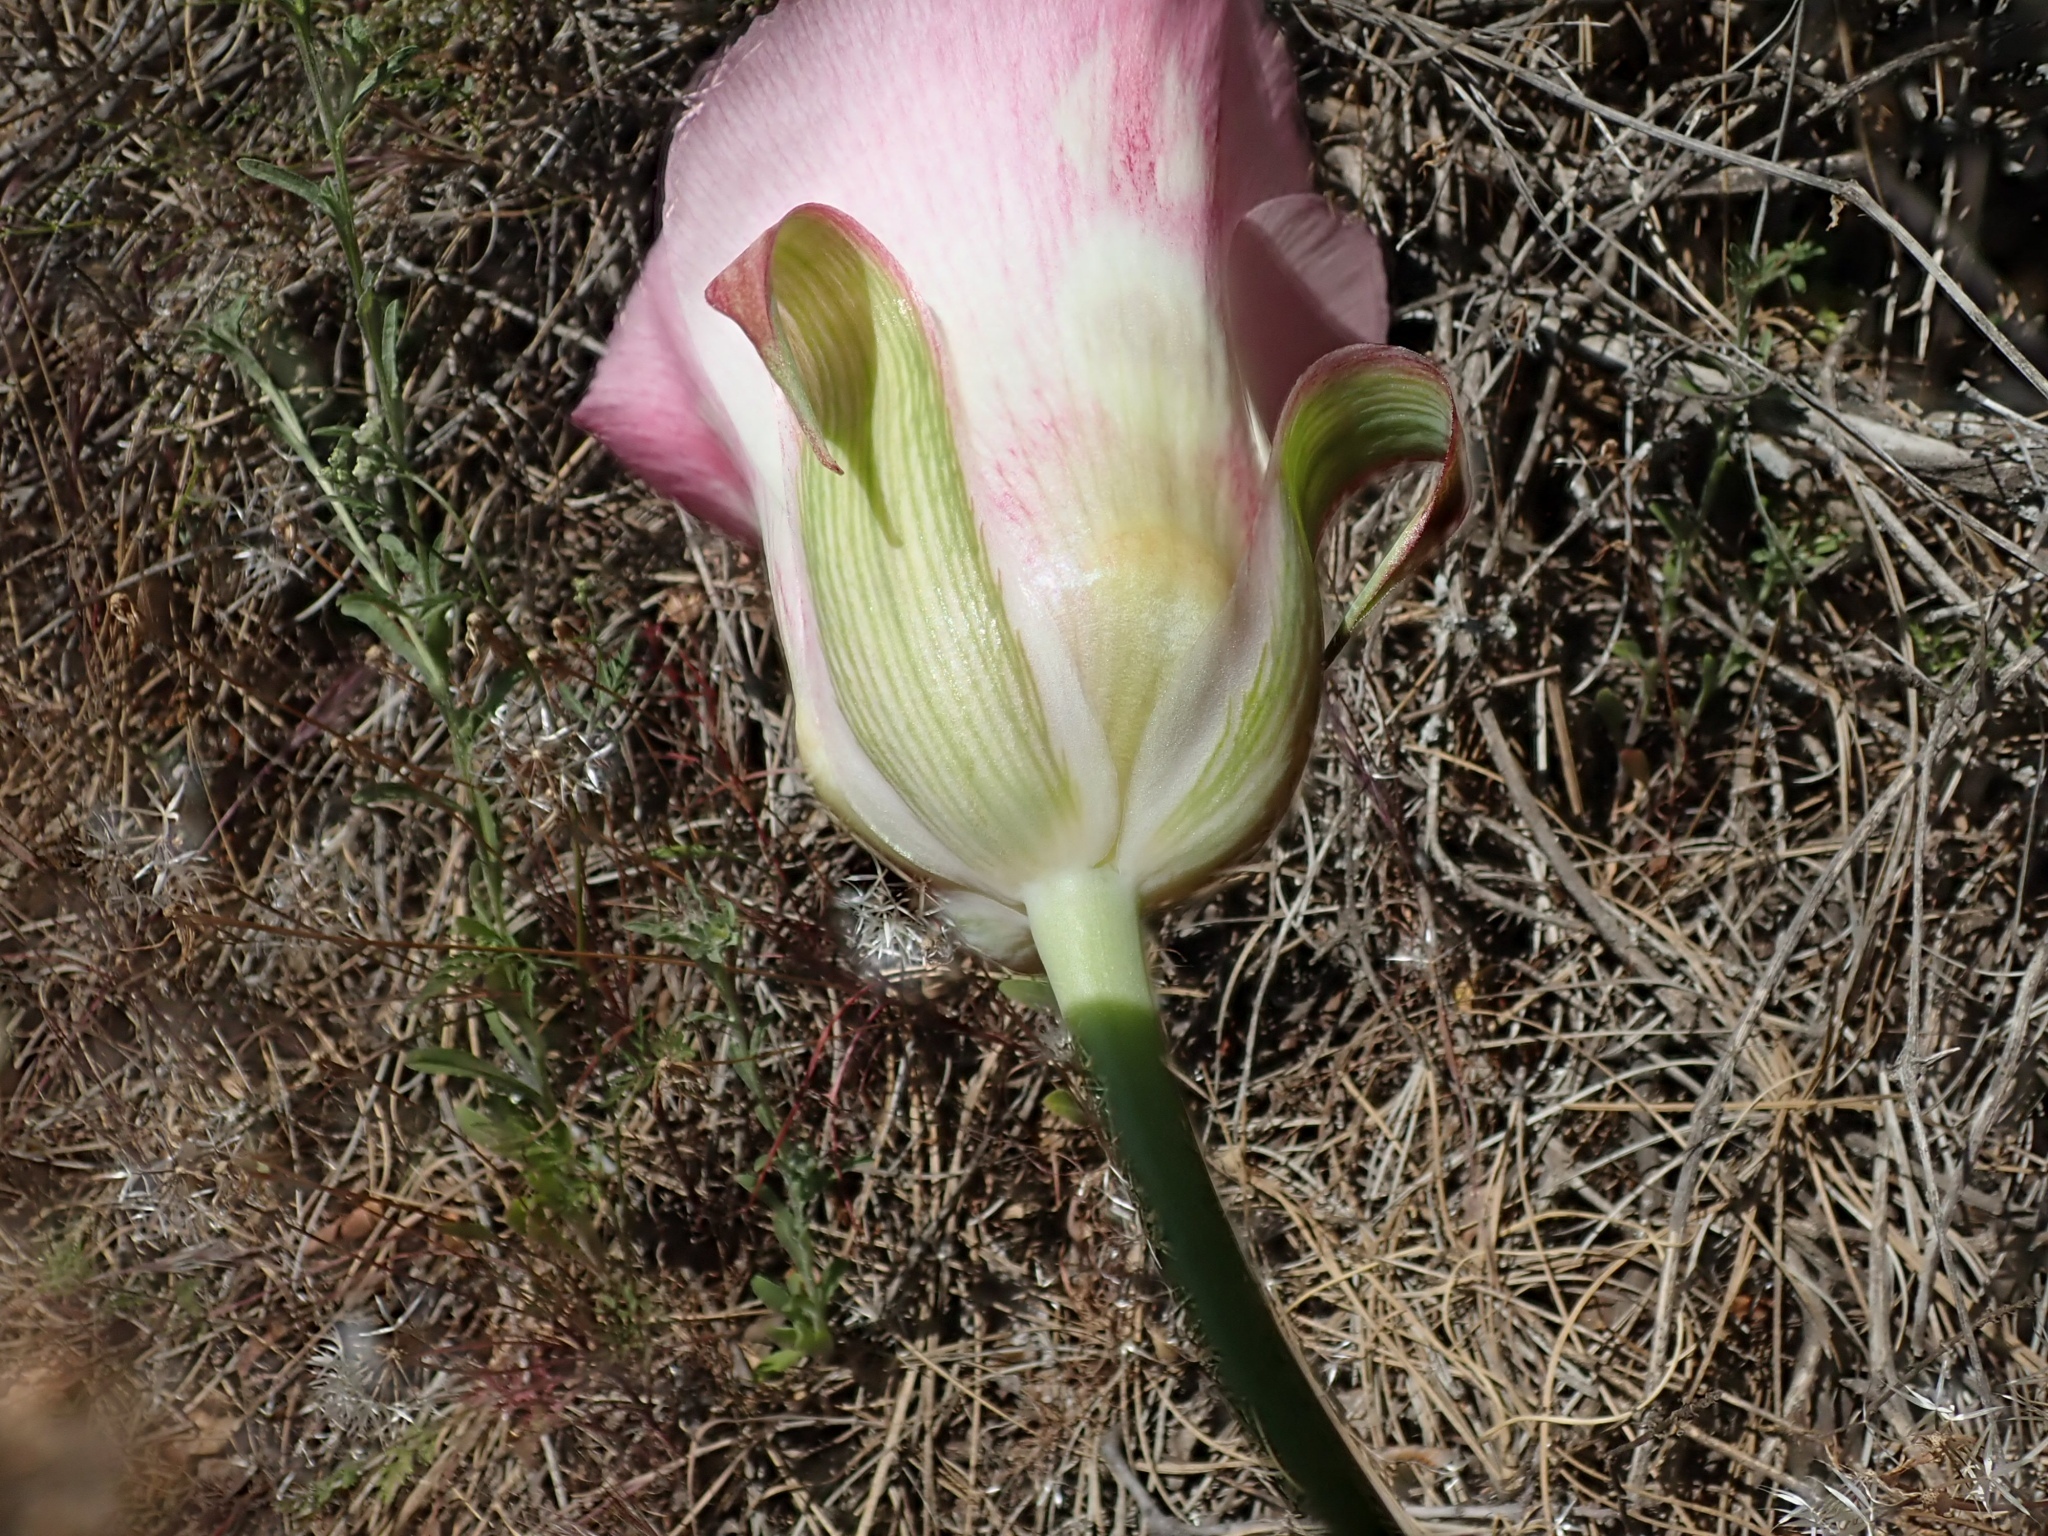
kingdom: Plantae
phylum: Tracheophyta
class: Liliopsida
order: Liliales
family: Liliaceae
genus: Calochortus
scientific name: Calochortus venustus
